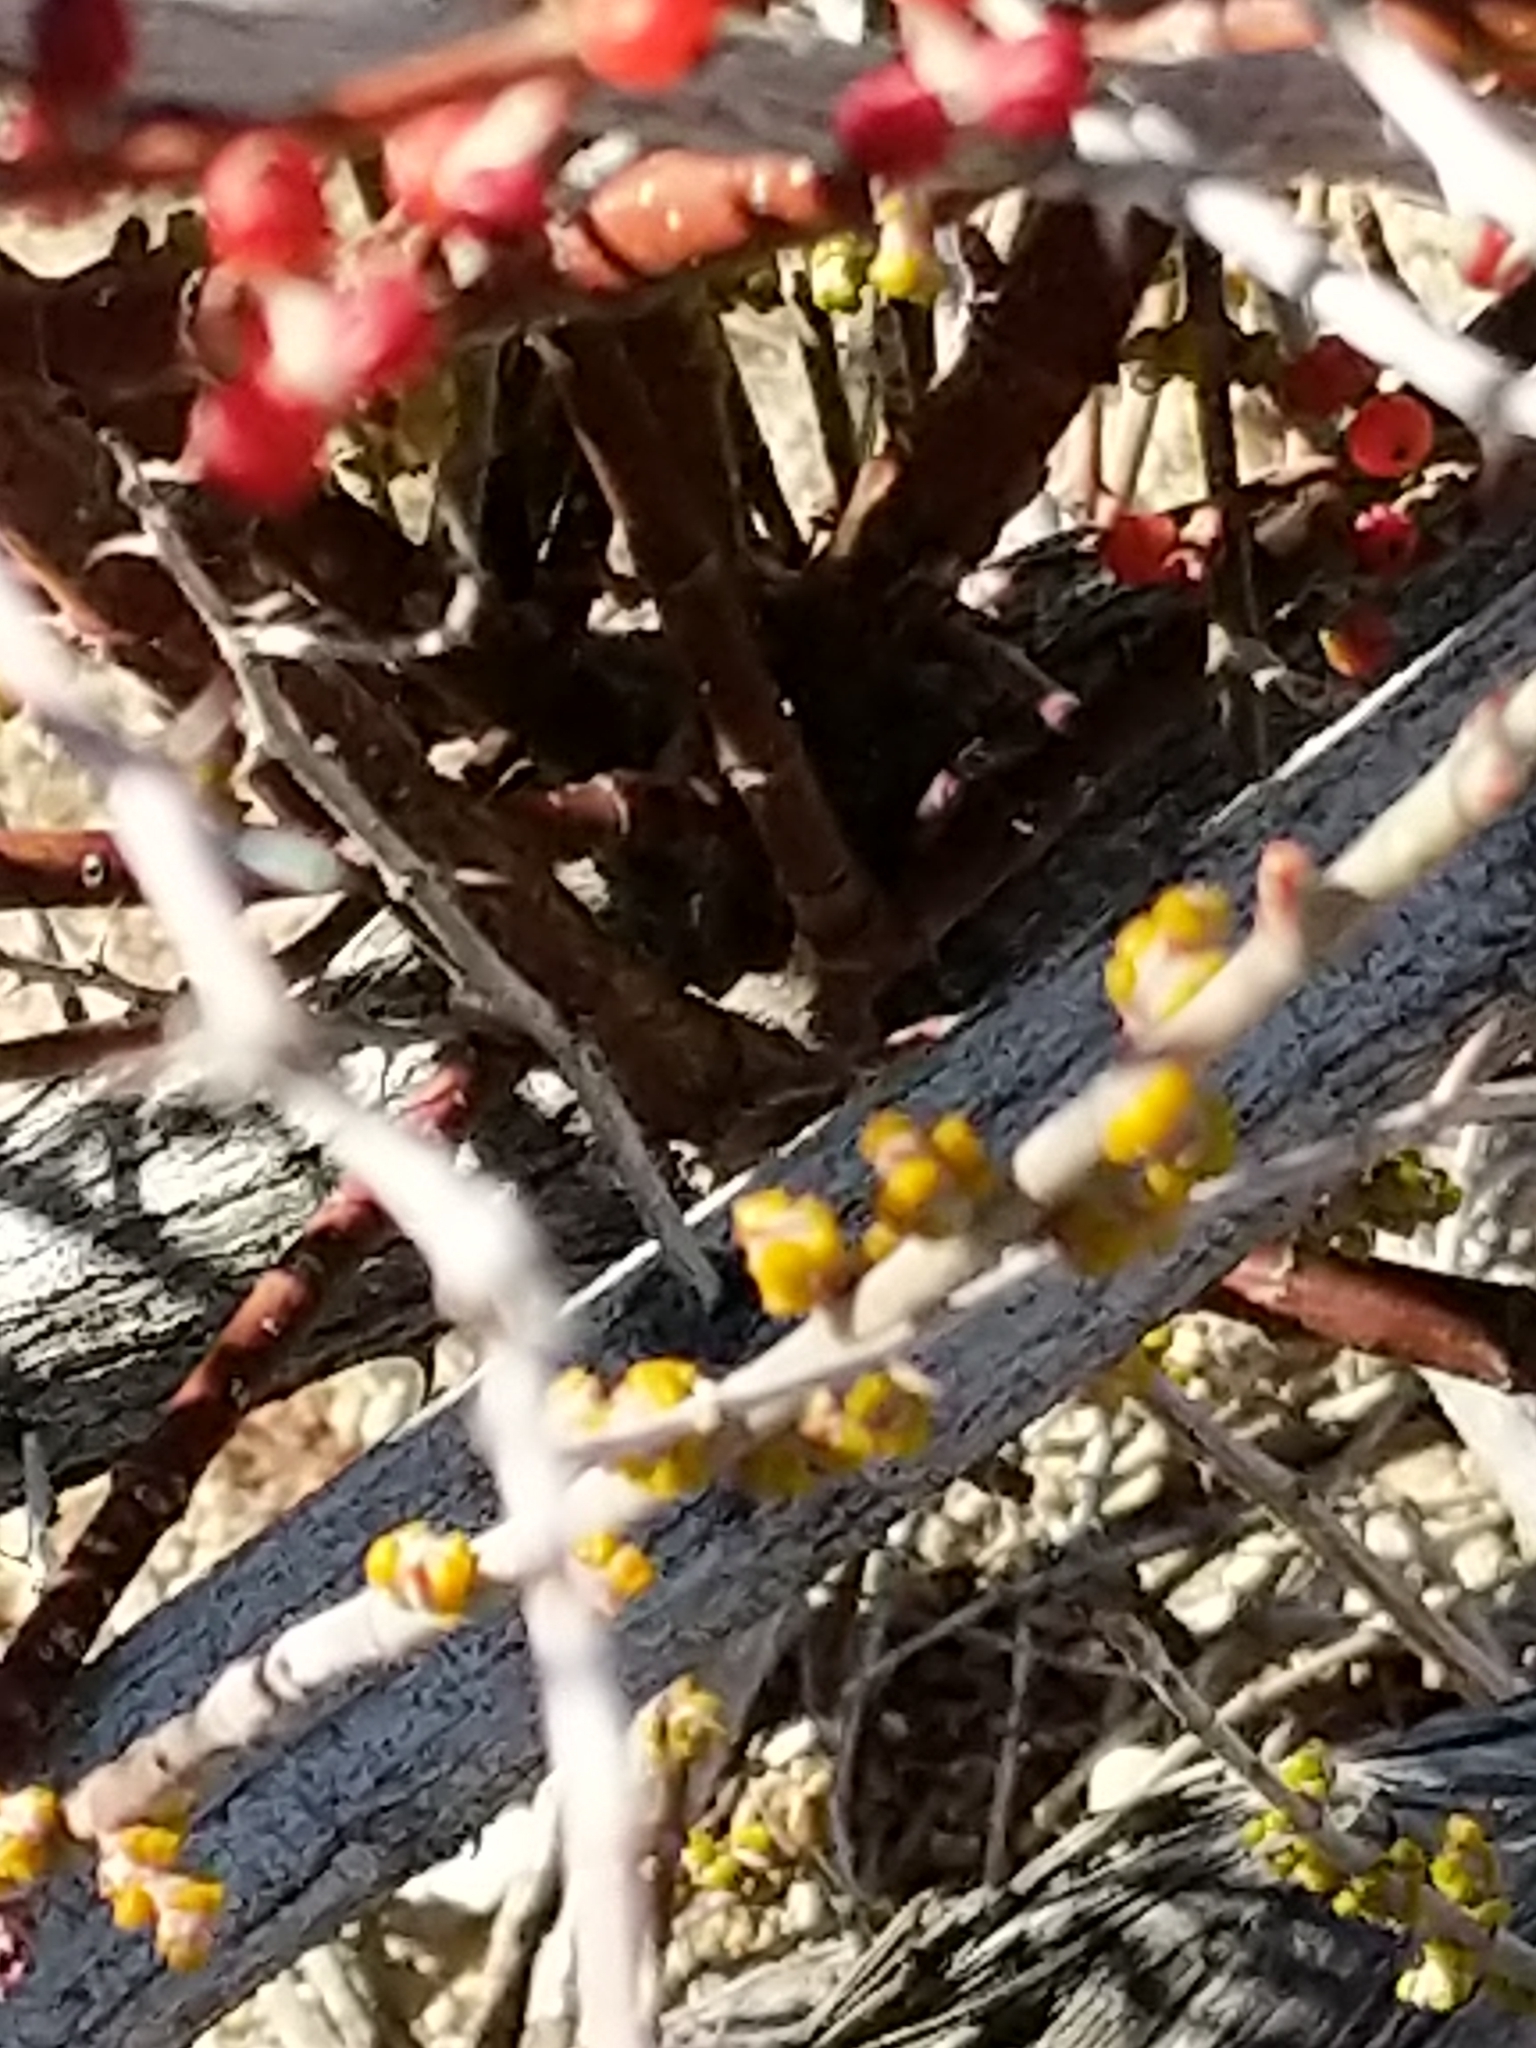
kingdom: Plantae
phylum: Tracheophyta
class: Magnoliopsida
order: Santalales
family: Viscaceae
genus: Phoradendron
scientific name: Phoradendron californicum
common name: Acacia mistletoe
